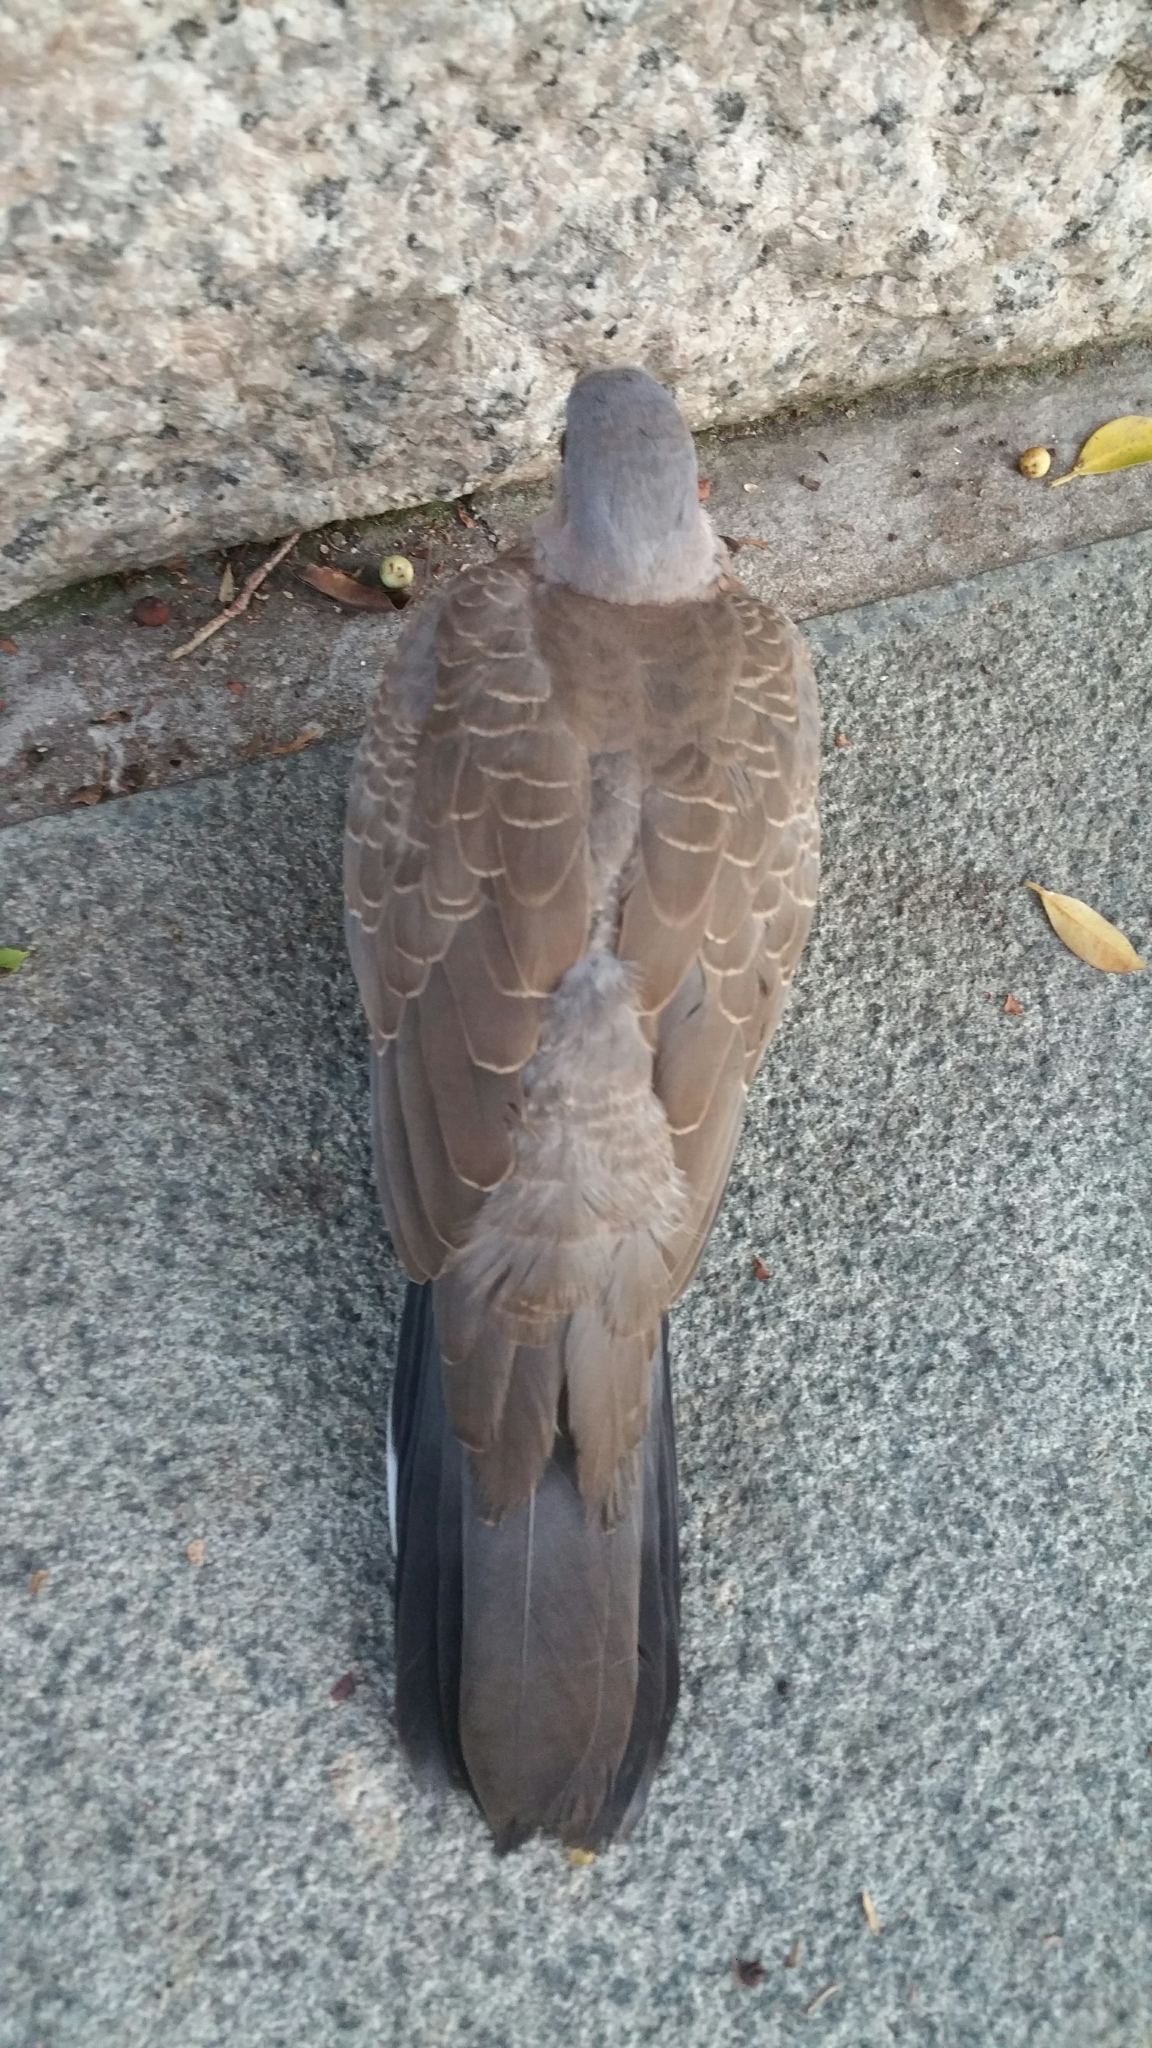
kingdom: Animalia
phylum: Chordata
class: Aves
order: Columbiformes
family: Columbidae
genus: Spilopelia
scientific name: Spilopelia chinensis
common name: Spotted dove
